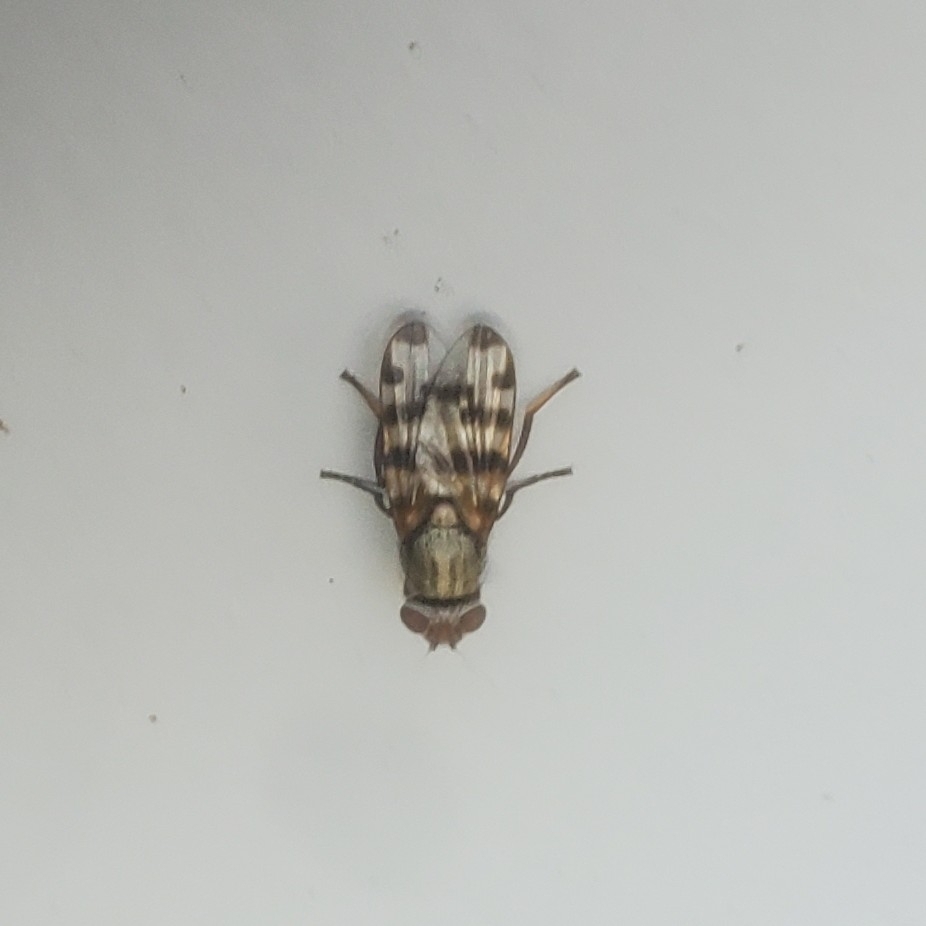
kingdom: Animalia
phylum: Arthropoda
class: Insecta
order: Diptera
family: Ulidiidae
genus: Ceroxys
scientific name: Ceroxys latiusculus
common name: Picture-winged fly
